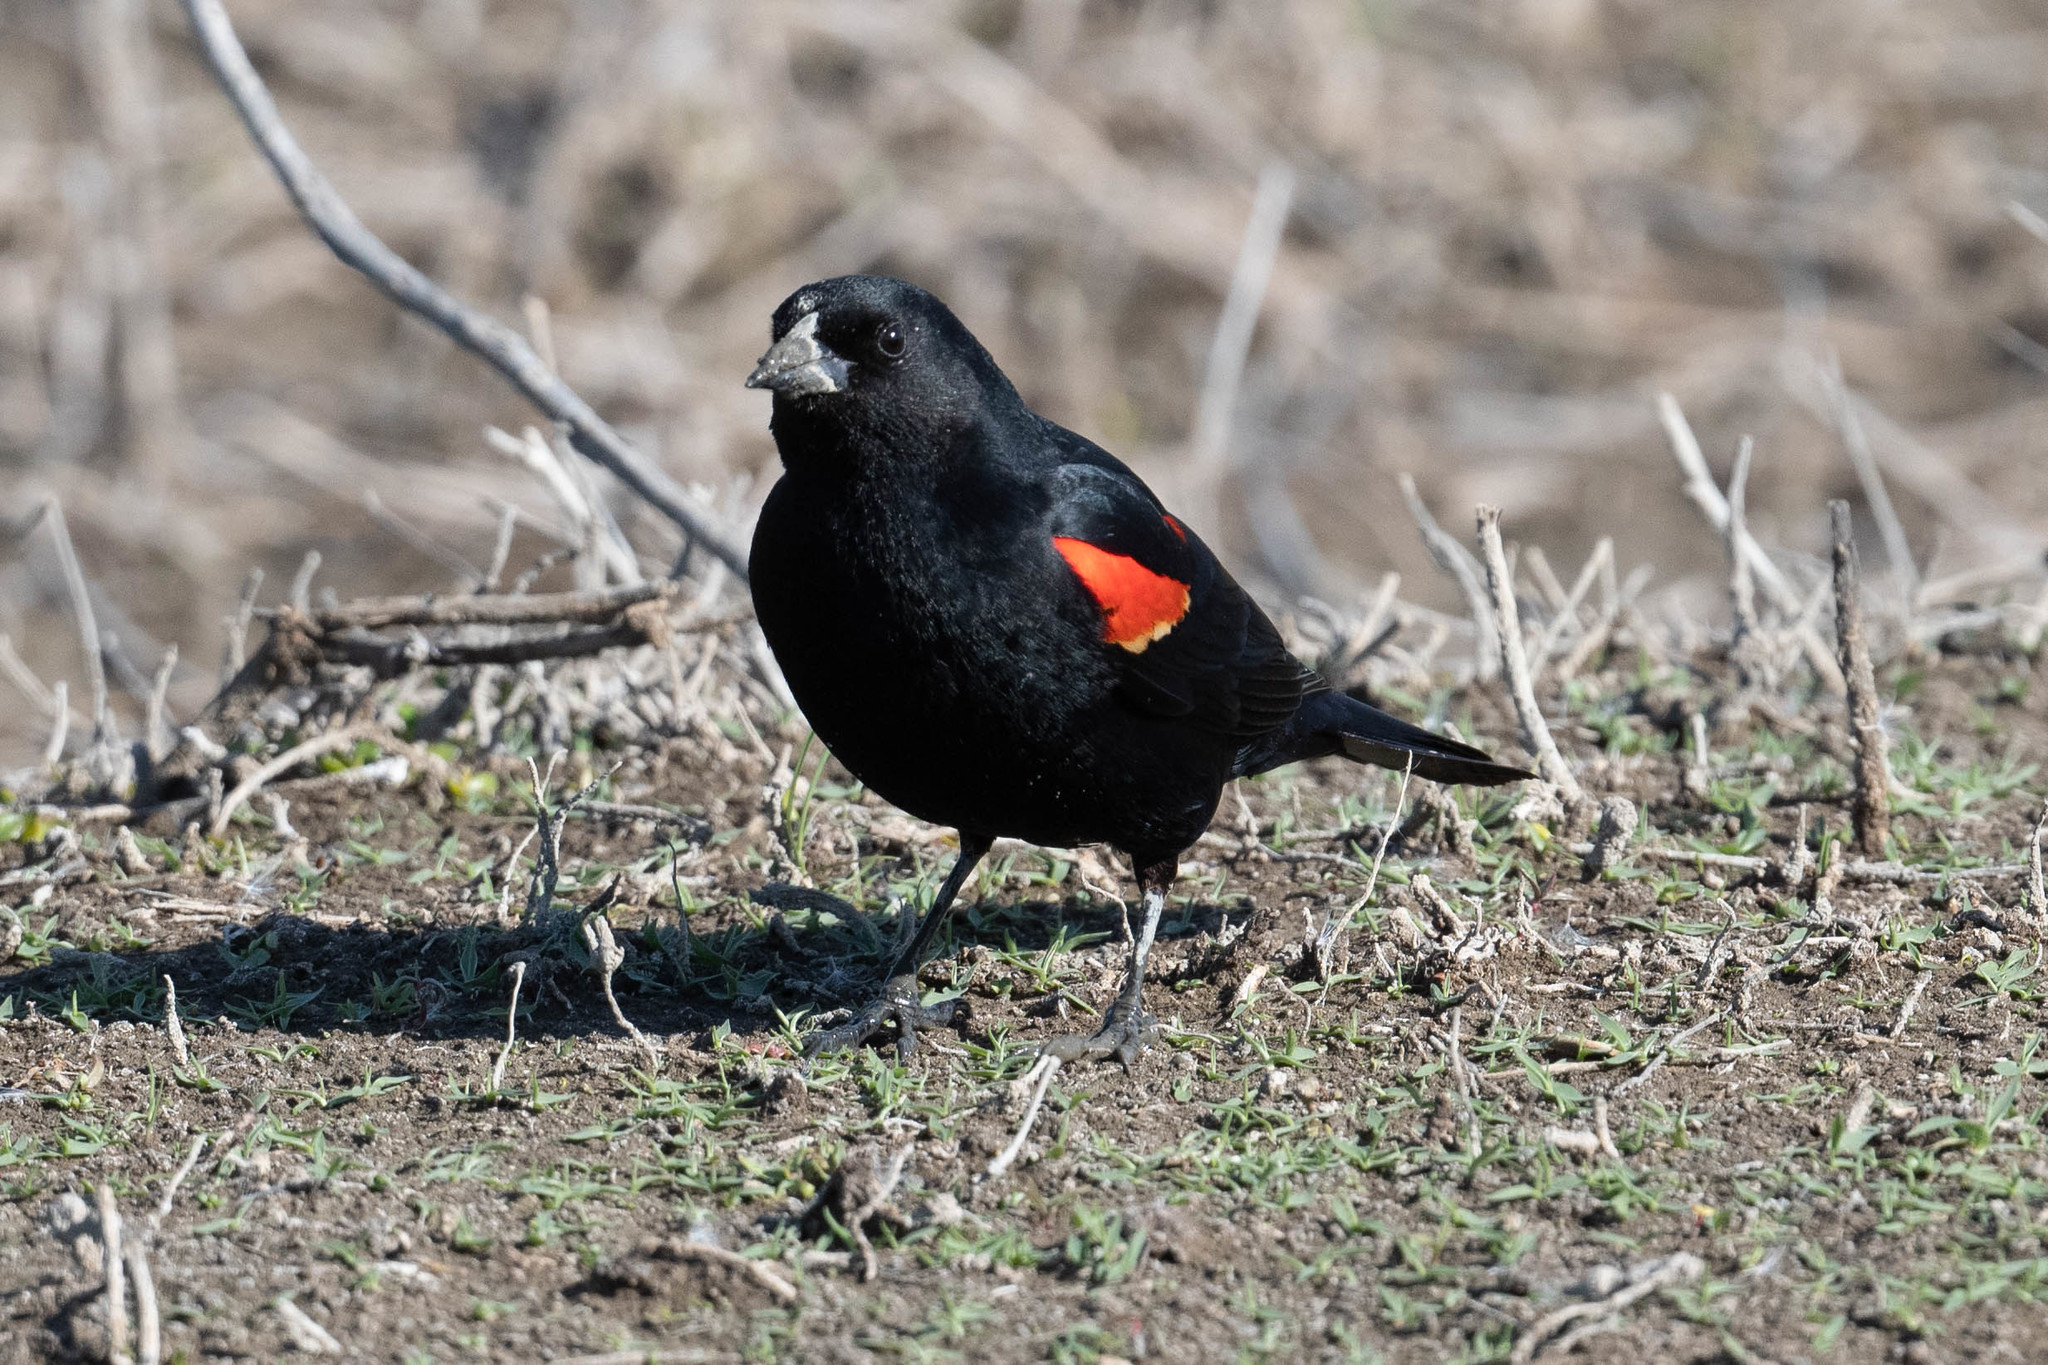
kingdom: Animalia
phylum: Chordata
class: Aves
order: Passeriformes
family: Icteridae
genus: Agelaius
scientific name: Agelaius phoeniceus
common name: Red-winged blackbird
